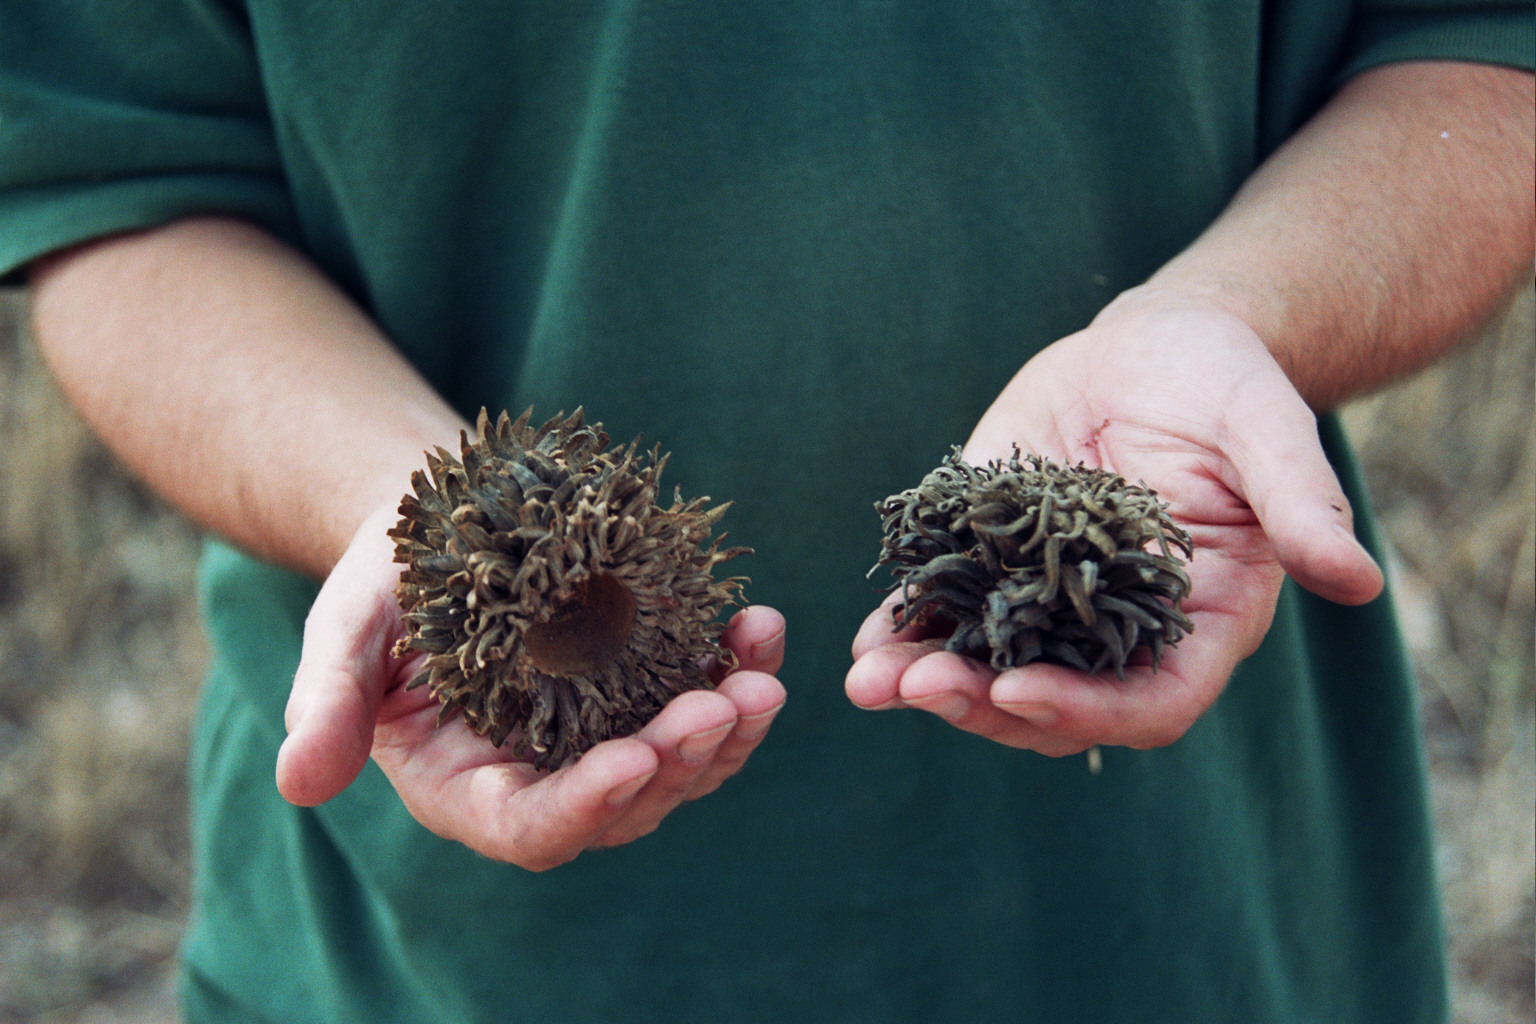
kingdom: Plantae
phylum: Tracheophyta
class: Magnoliopsida
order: Fagales
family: Fagaceae
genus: Quercus
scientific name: Quercus ithaburensis
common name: Tabor oak
